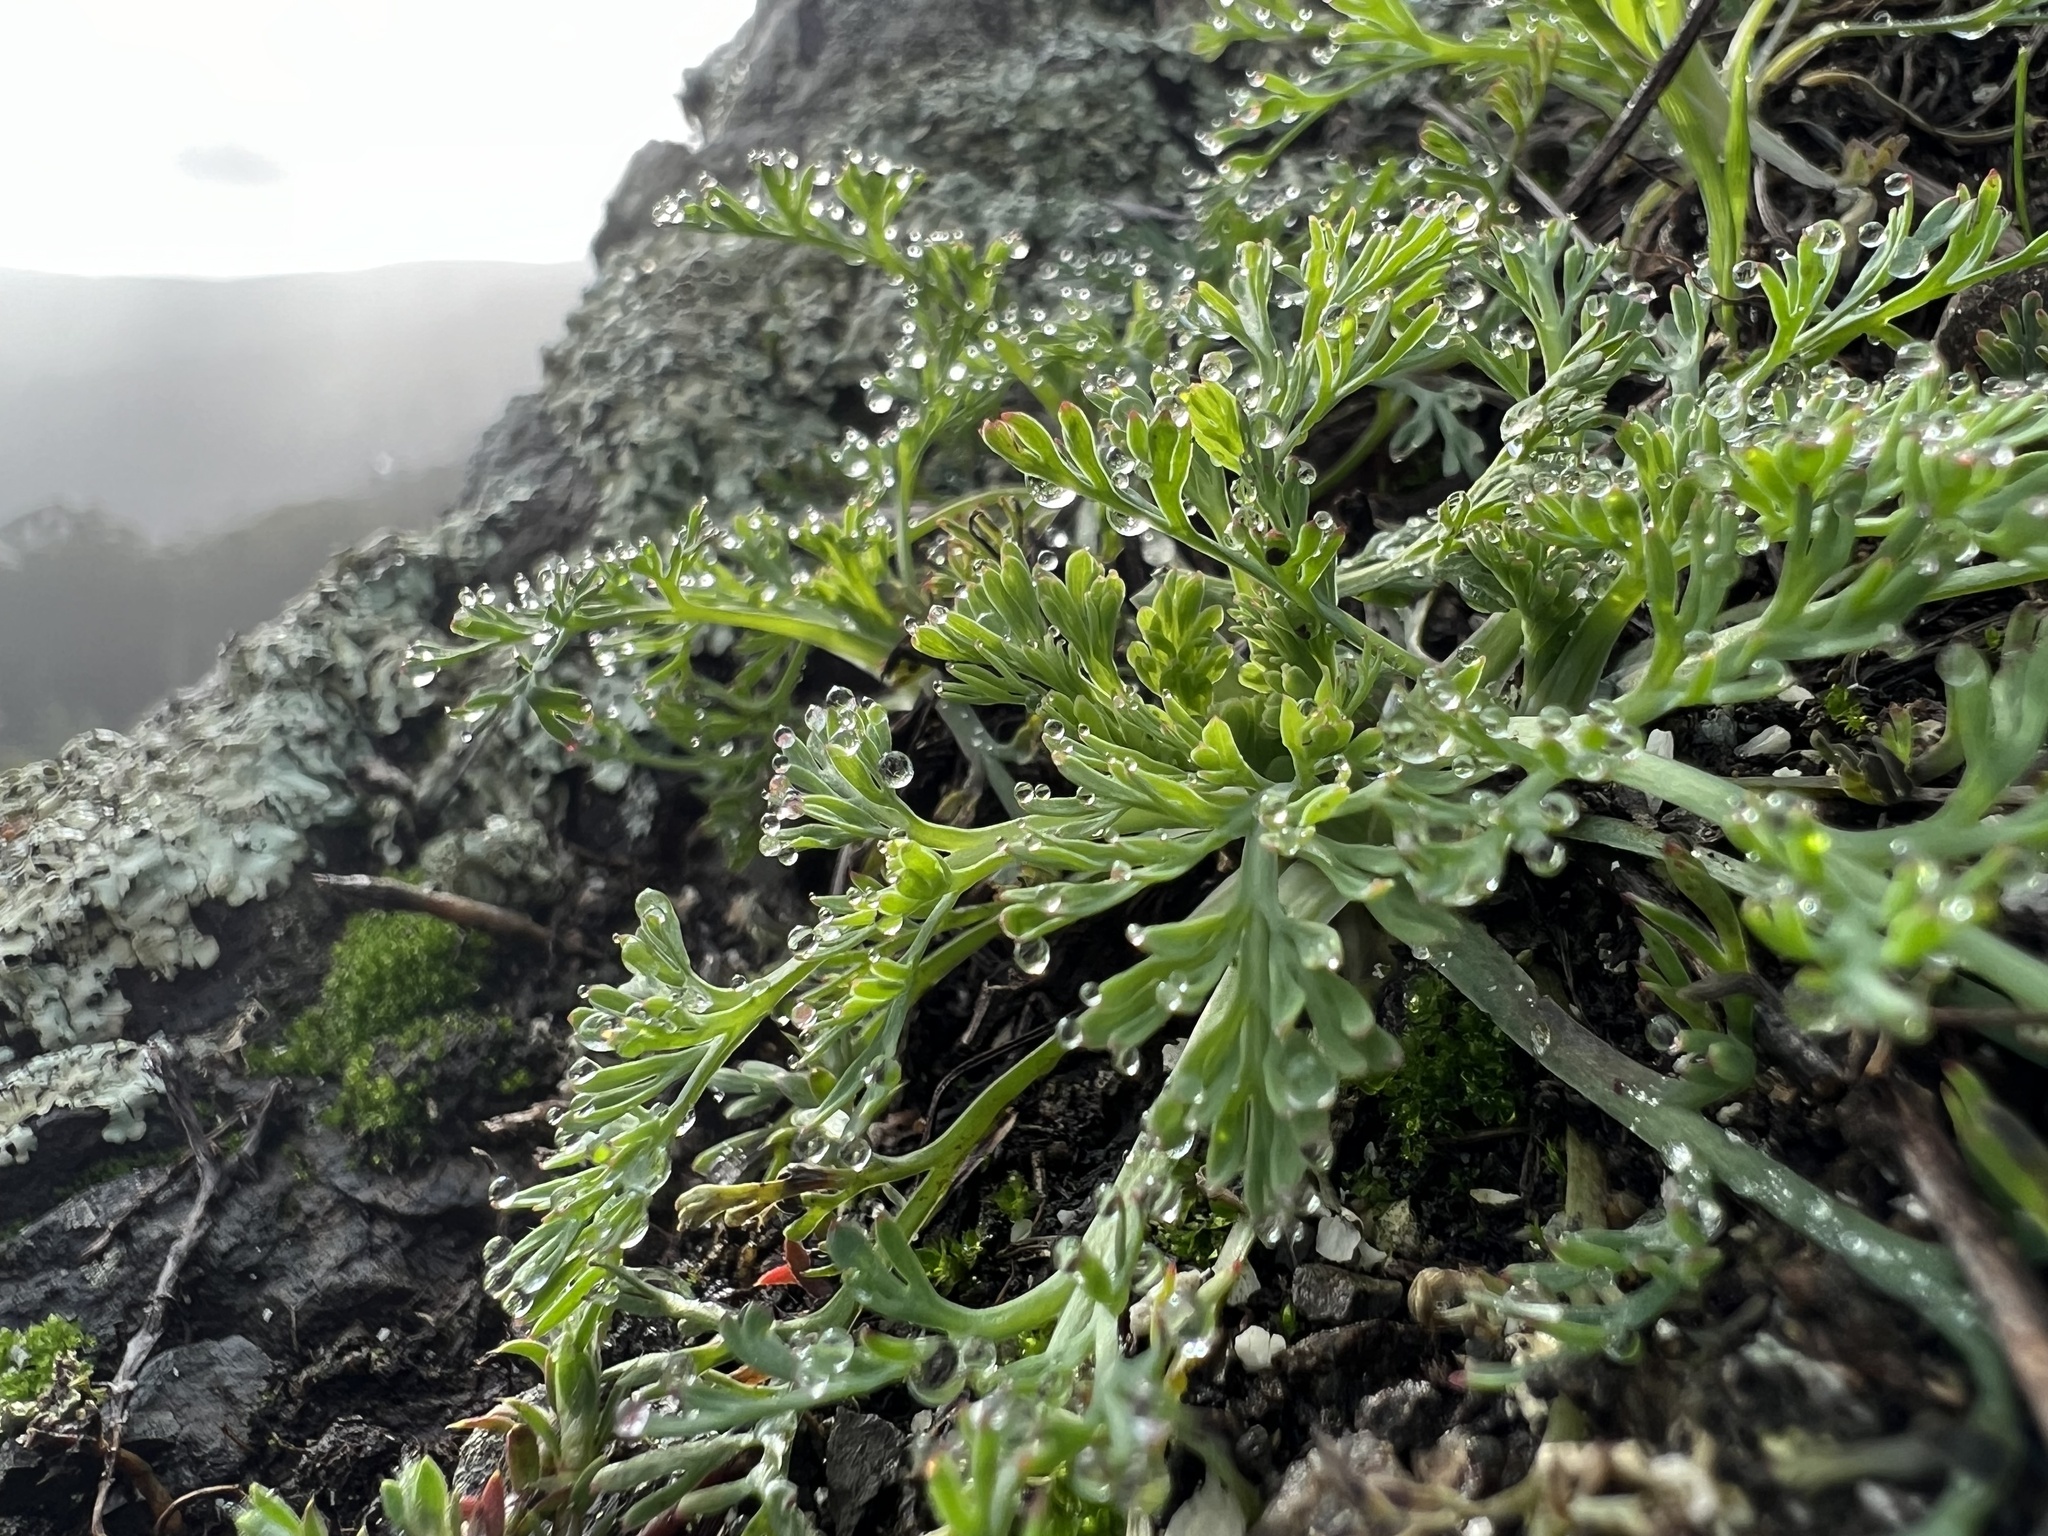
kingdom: Plantae
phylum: Tracheophyta
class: Magnoliopsida
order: Ranunculales
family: Papaveraceae
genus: Eschscholzia
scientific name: Eschscholzia californica
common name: California poppy
